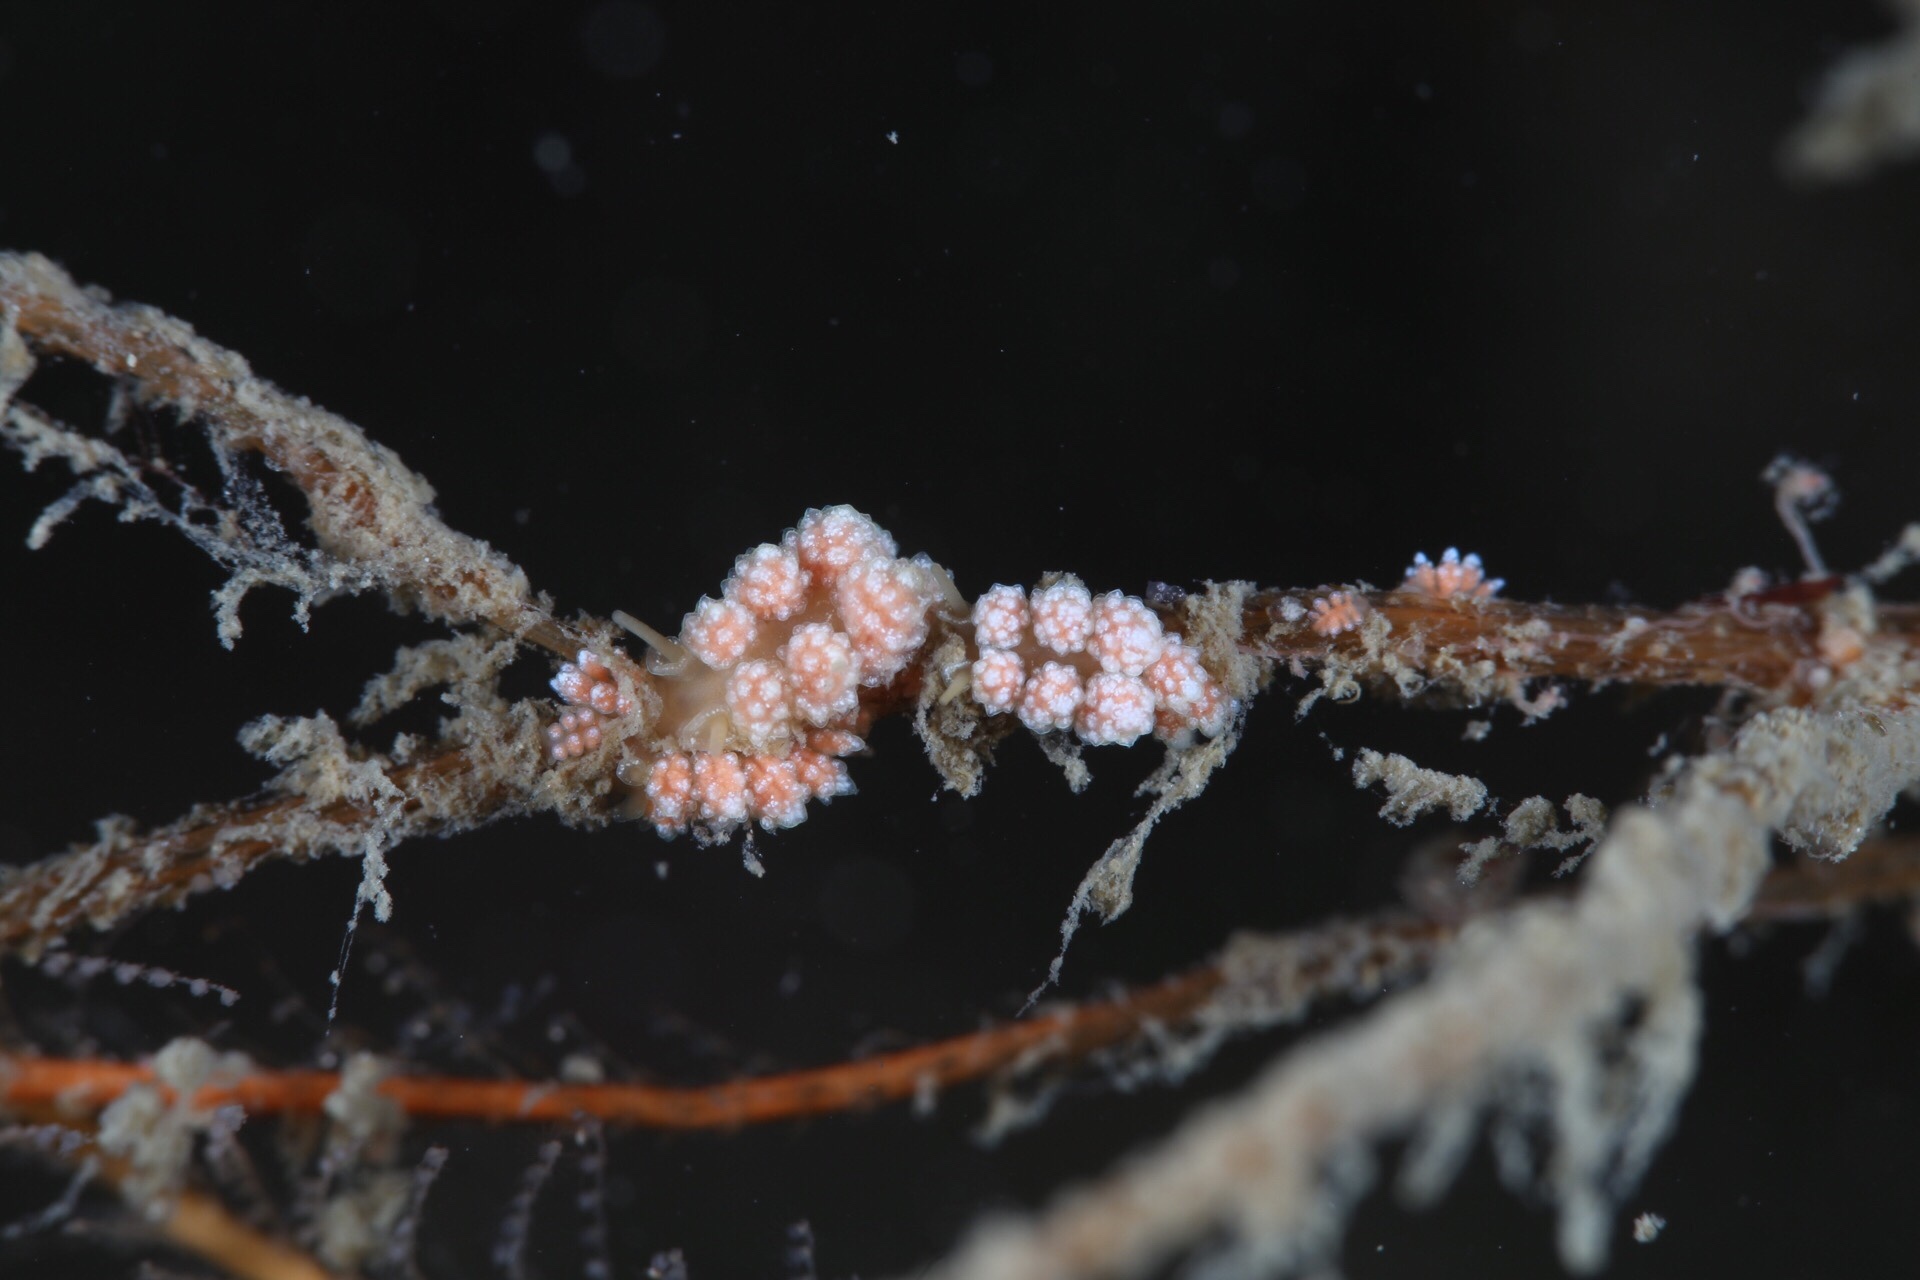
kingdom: Animalia
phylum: Mollusca
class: Gastropoda
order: Nudibranchia
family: Dotidae
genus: Doto
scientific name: Doto fragilis
